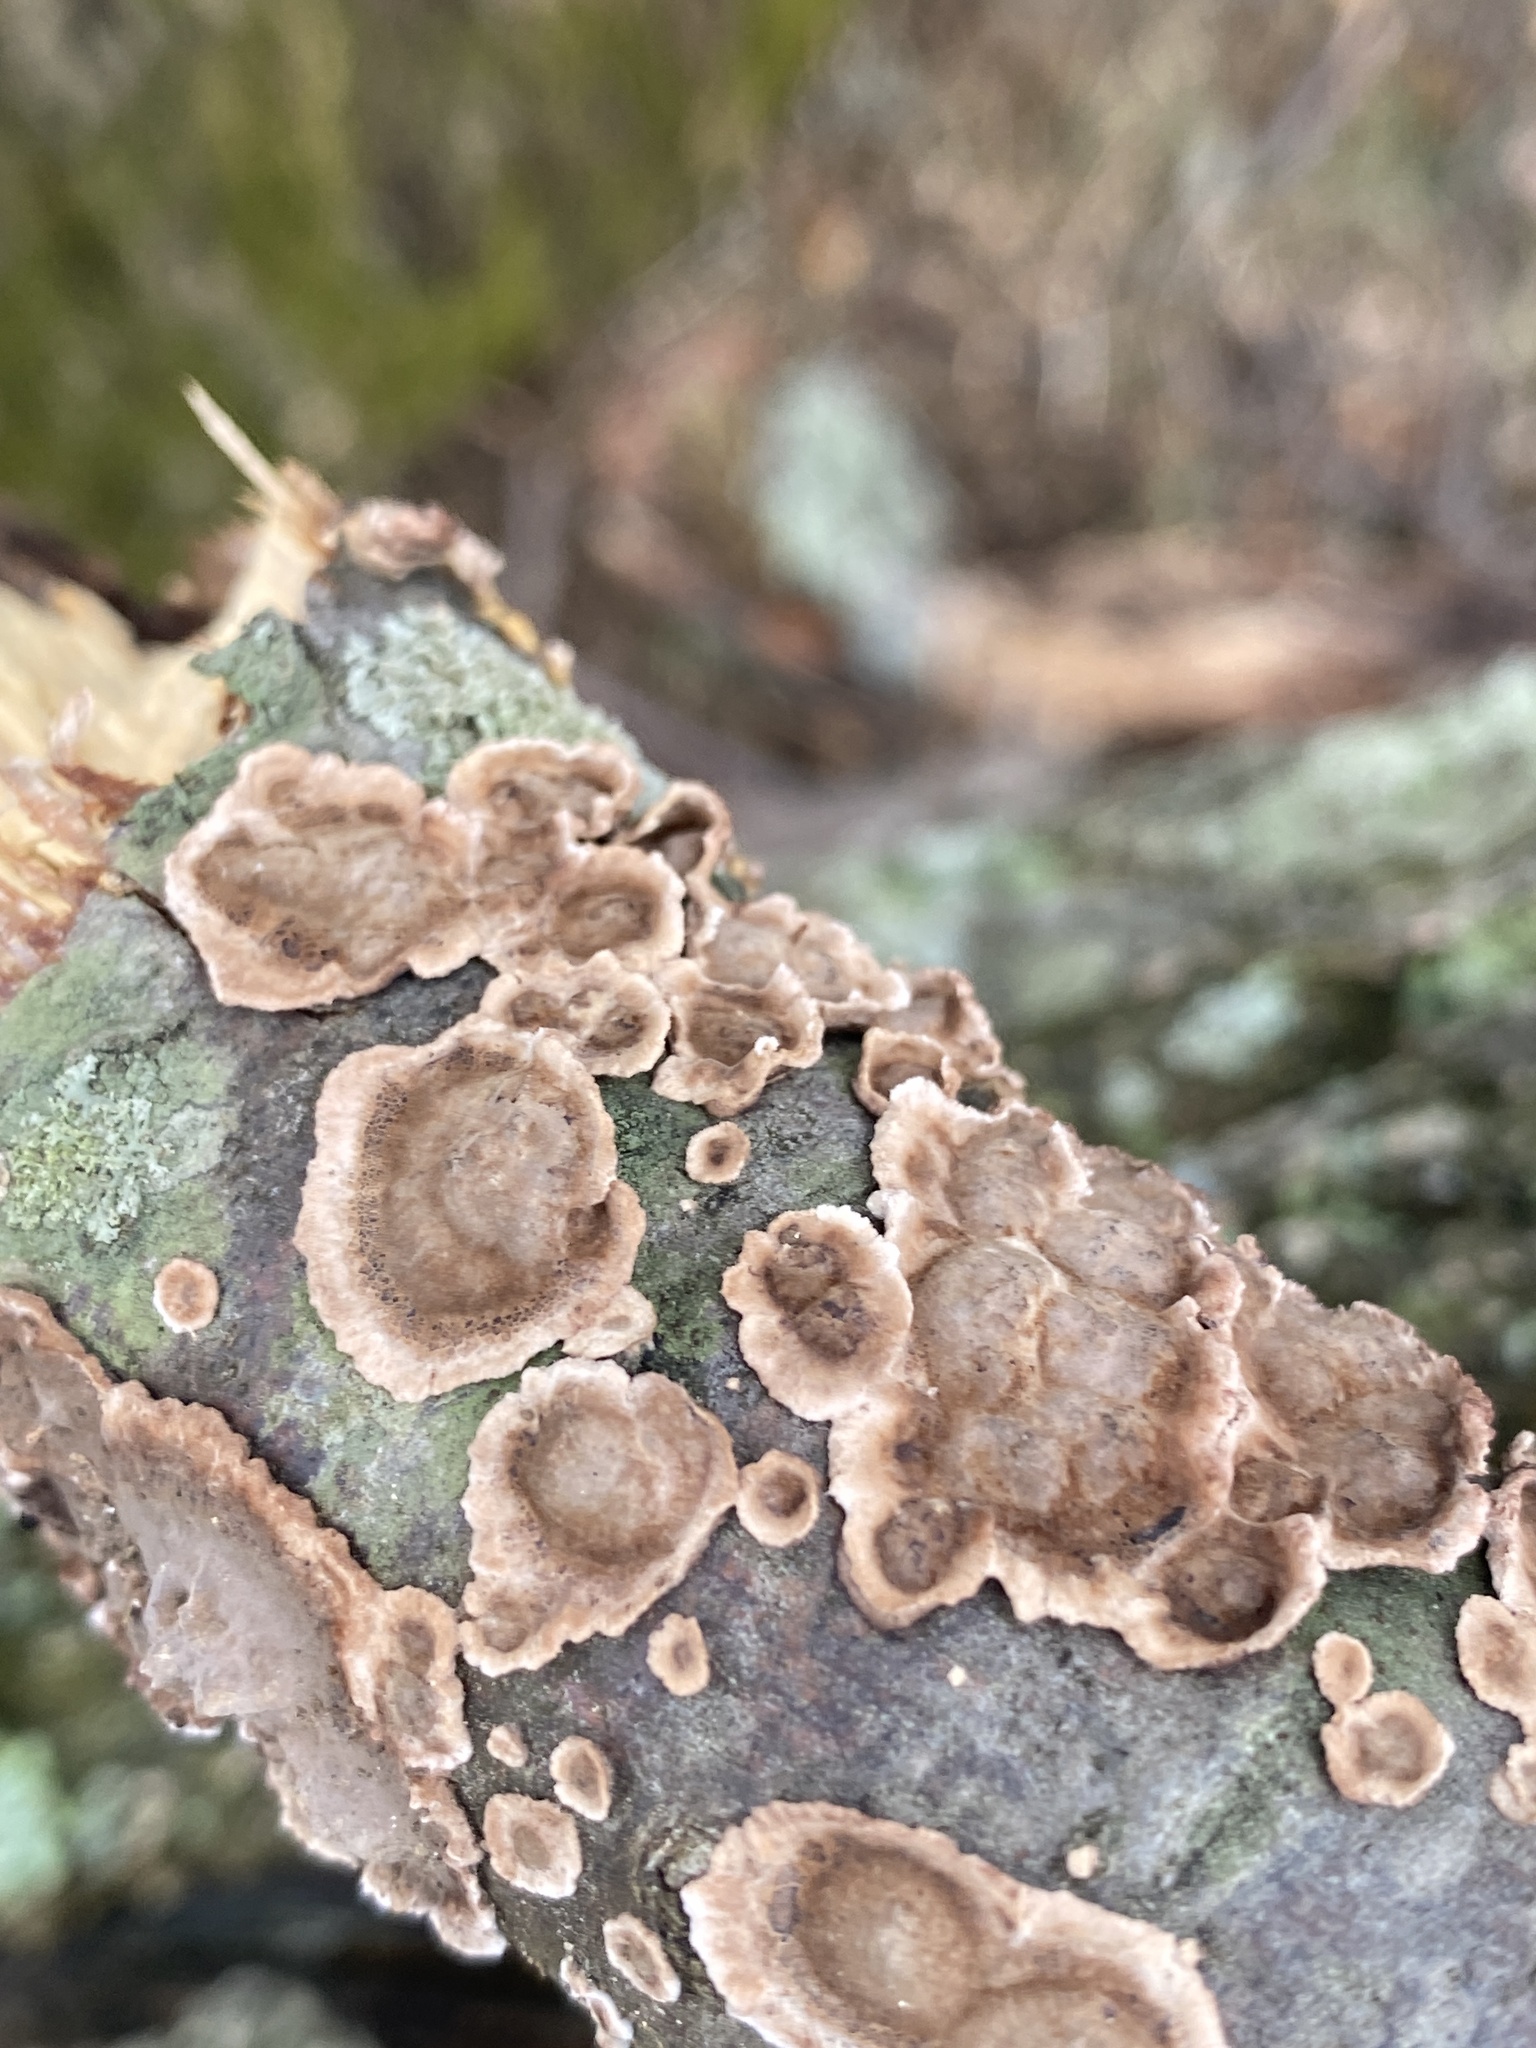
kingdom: Fungi
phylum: Basidiomycota
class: Agaricomycetes
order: Russulales
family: Peniophoraceae
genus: Peniophora
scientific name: Peniophora albobadia
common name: Giraffe spots
